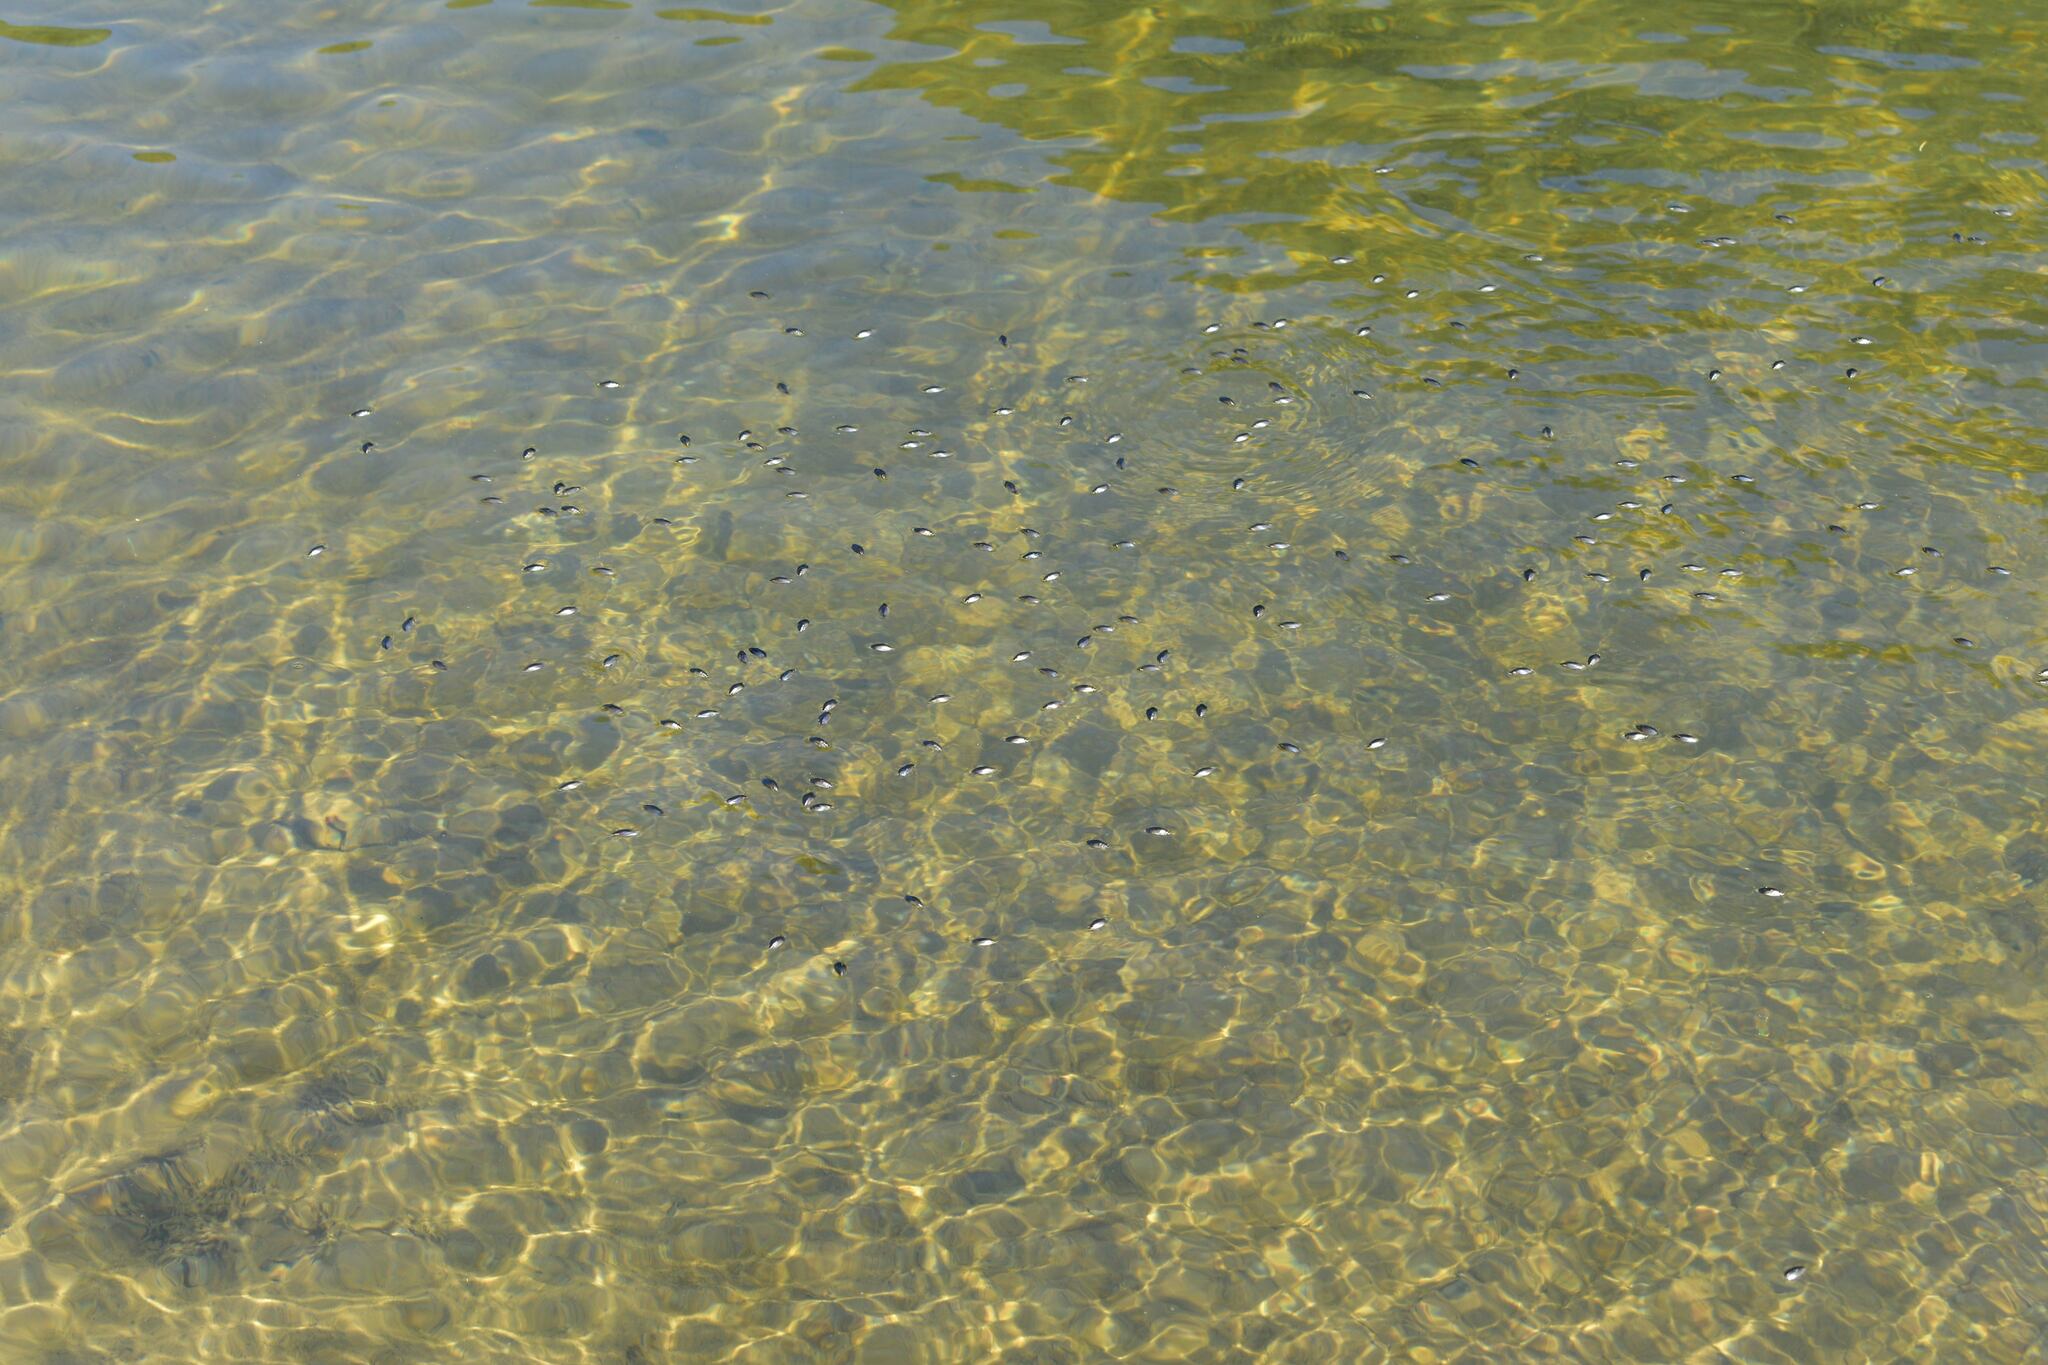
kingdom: Animalia
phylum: Arthropoda
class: Insecta
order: Coleoptera
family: Gyrinidae
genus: Dineutus
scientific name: Dineutus
